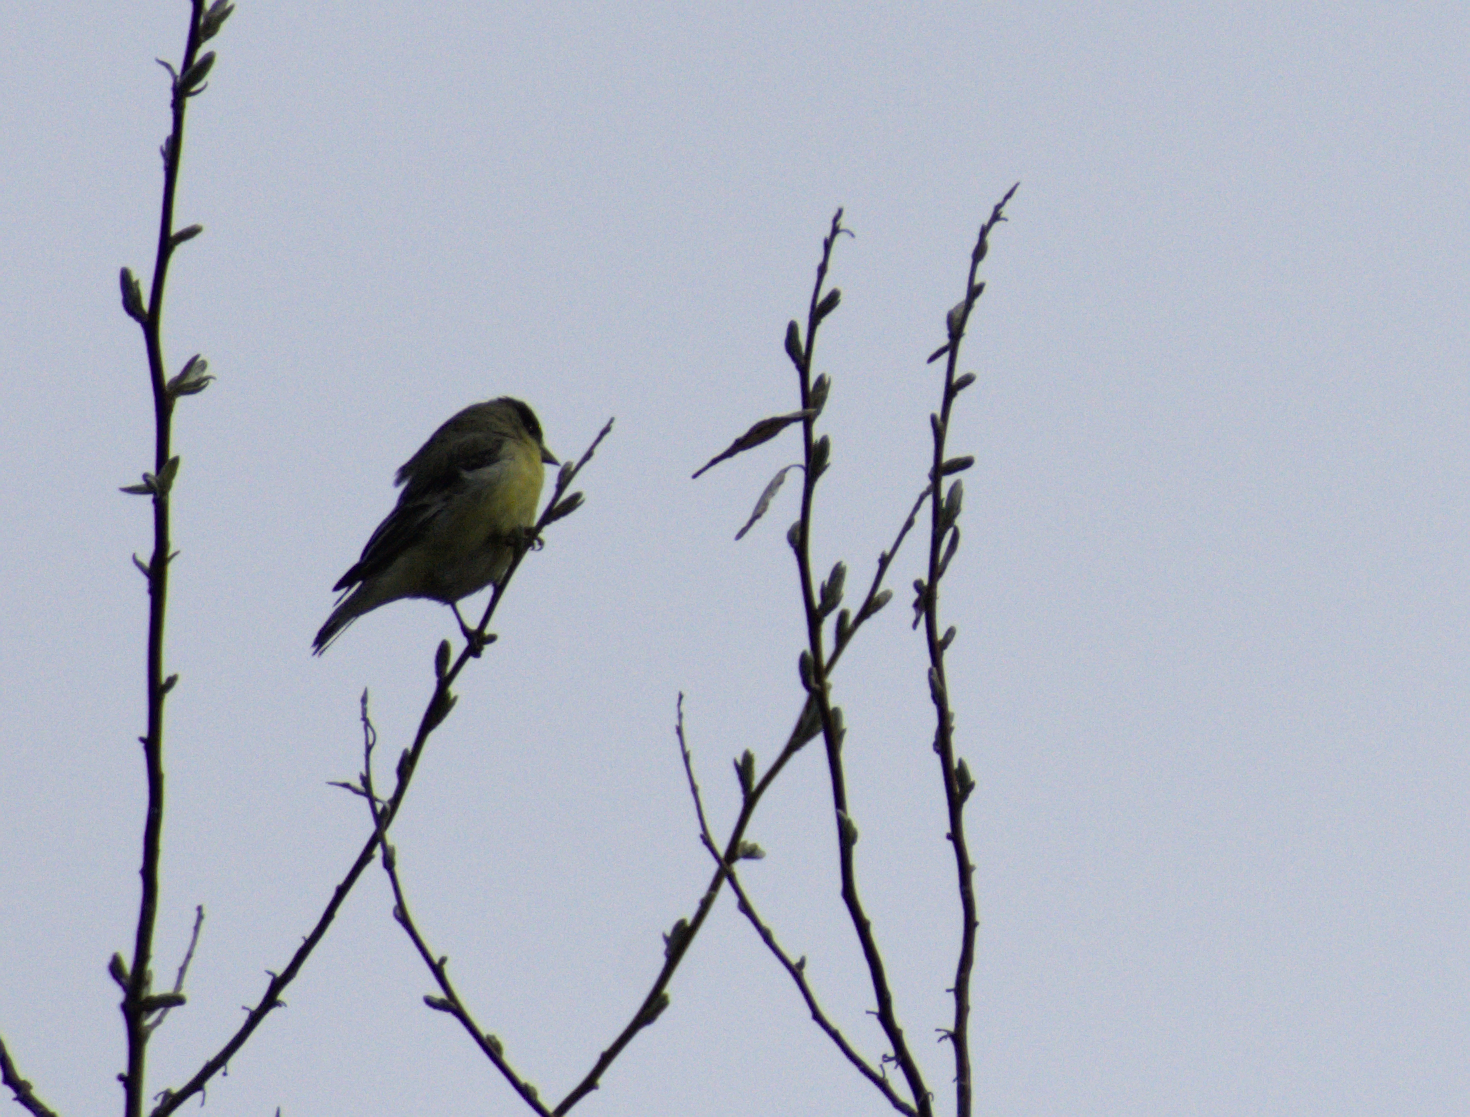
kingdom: Animalia
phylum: Chordata
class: Aves
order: Passeriformes
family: Fringillidae
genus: Spinus
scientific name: Spinus psaltria
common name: Lesser goldfinch
